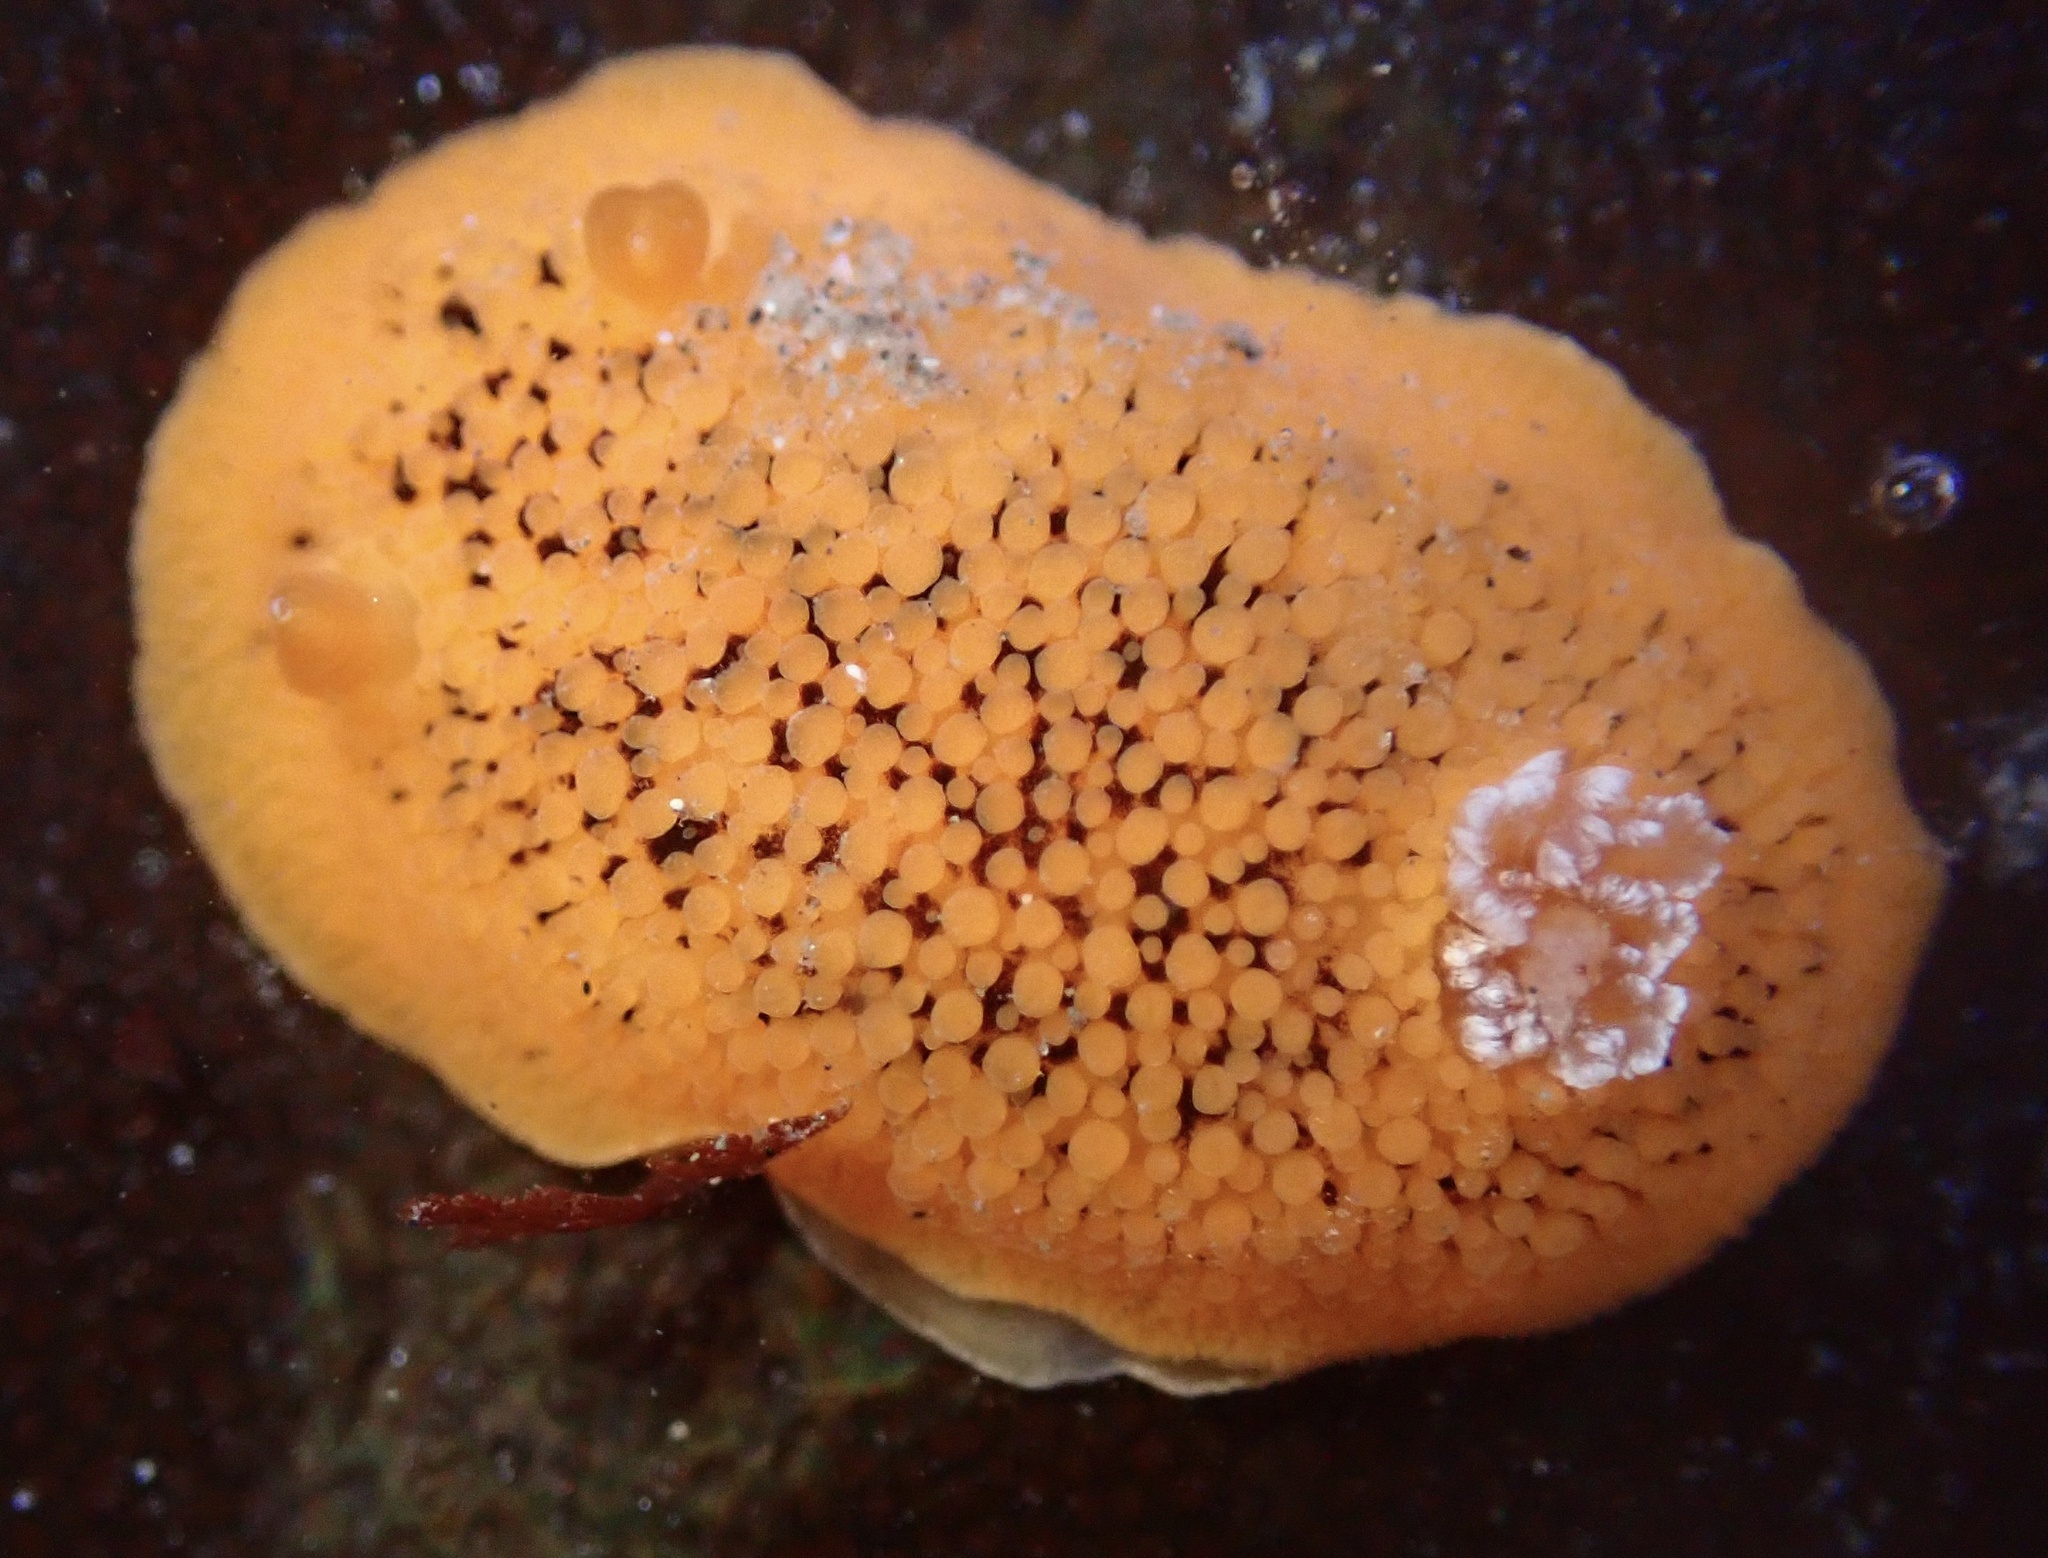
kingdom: Animalia
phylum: Mollusca
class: Gastropoda
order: Nudibranchia
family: Discodorididae
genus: Peltodoris
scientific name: Peltodoris nobilis
